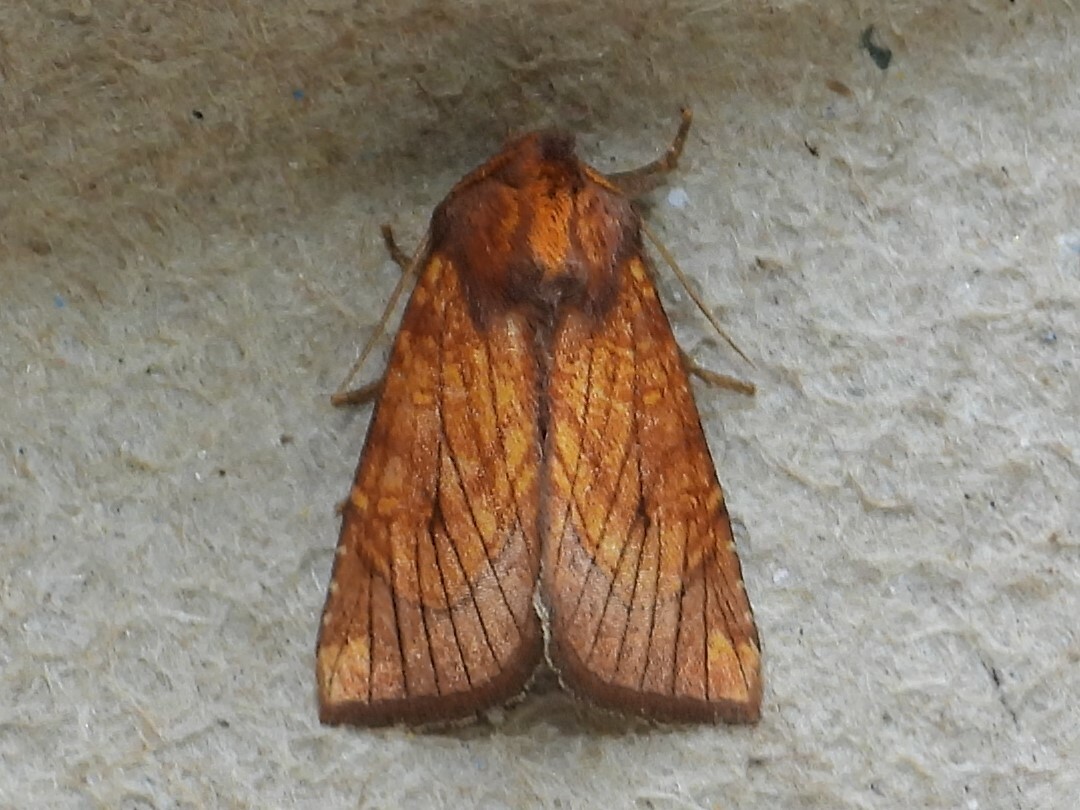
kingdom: Animalia
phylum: Arthropoda
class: Insecta
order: Lepidoptera
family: Noctuidae
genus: Papaipema
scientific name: Papaipema inquaesita
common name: Sensitive fern borer moth
